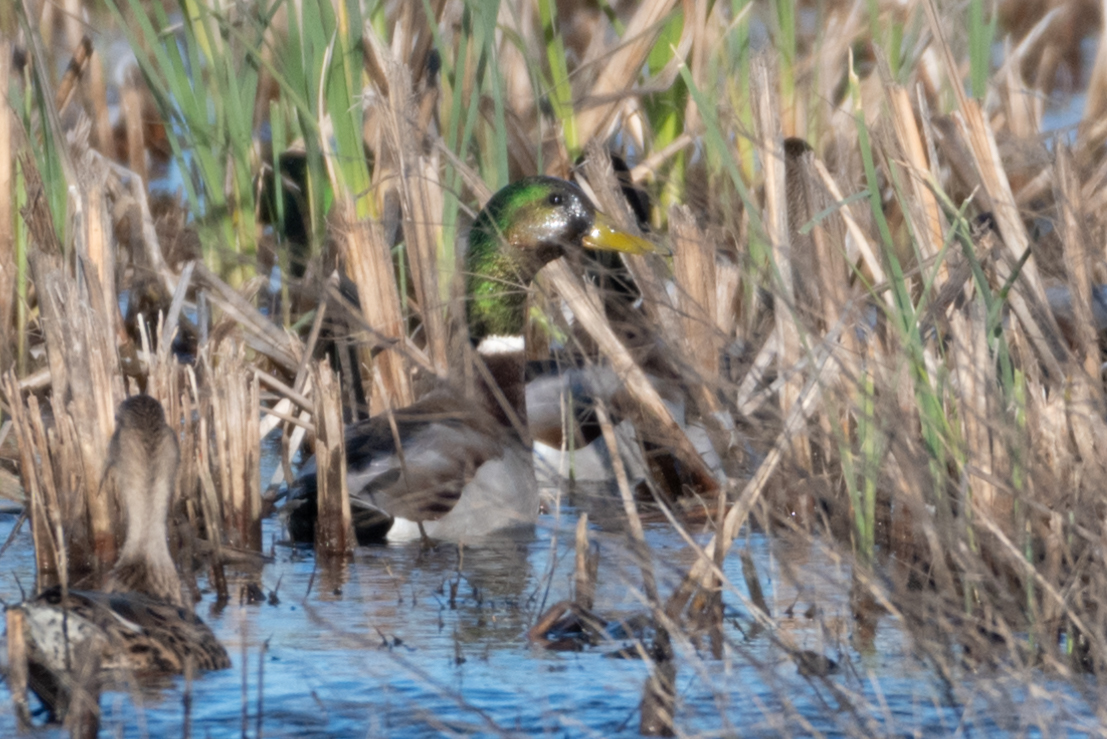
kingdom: Animalia
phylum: Chordata
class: Aves
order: Anseriformes
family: Anatidae
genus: Anas
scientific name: Anas platyrhynchos
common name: Mallard
